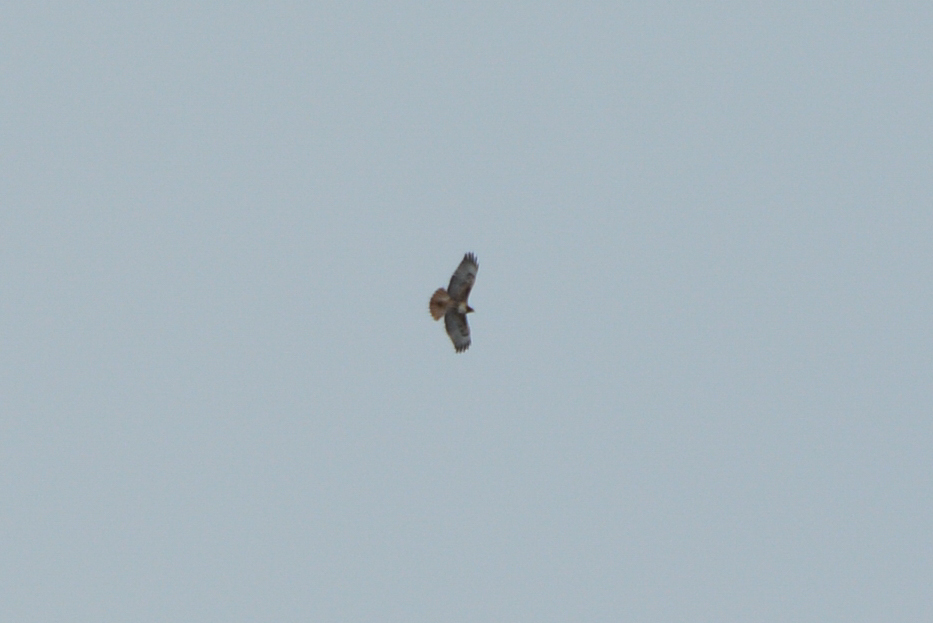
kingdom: Animalia
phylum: Chordata
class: Aves
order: Accipitriformes
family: Accipitridae
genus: Buteo
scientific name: Buteo jamaicensis
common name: Red-tailed hawk
